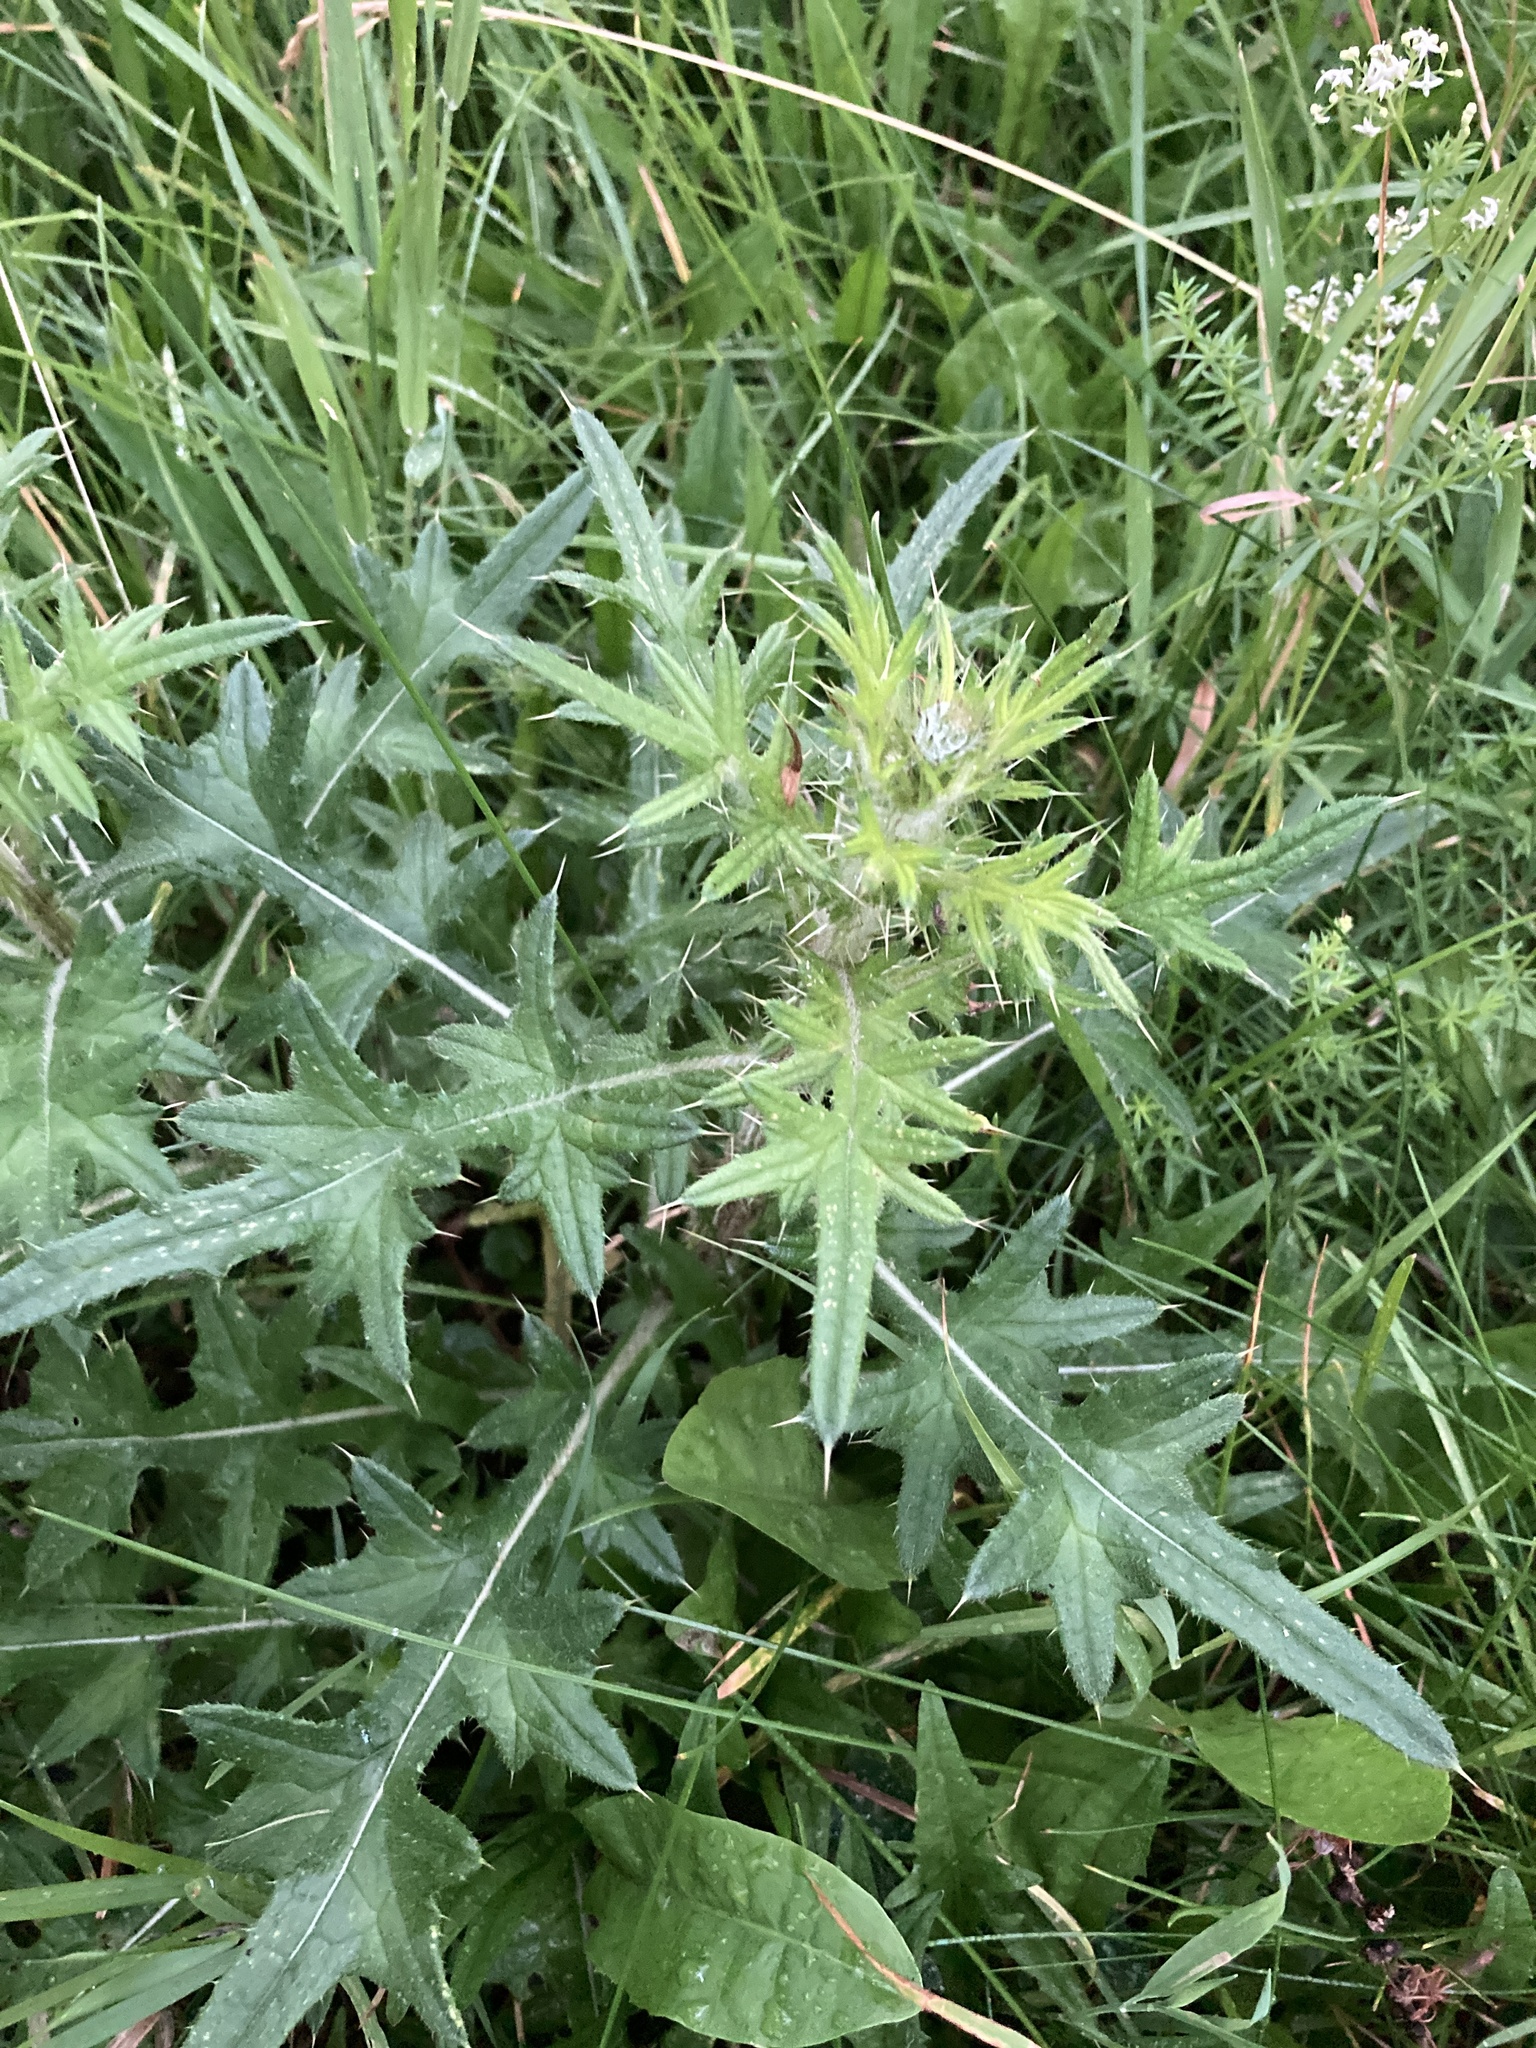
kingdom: Plantae
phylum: Tracheophyta
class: Magnoliopsida
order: Asterales
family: Asteraceae
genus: Cirsium
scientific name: Cirsium vulgare
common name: Bull thistle
